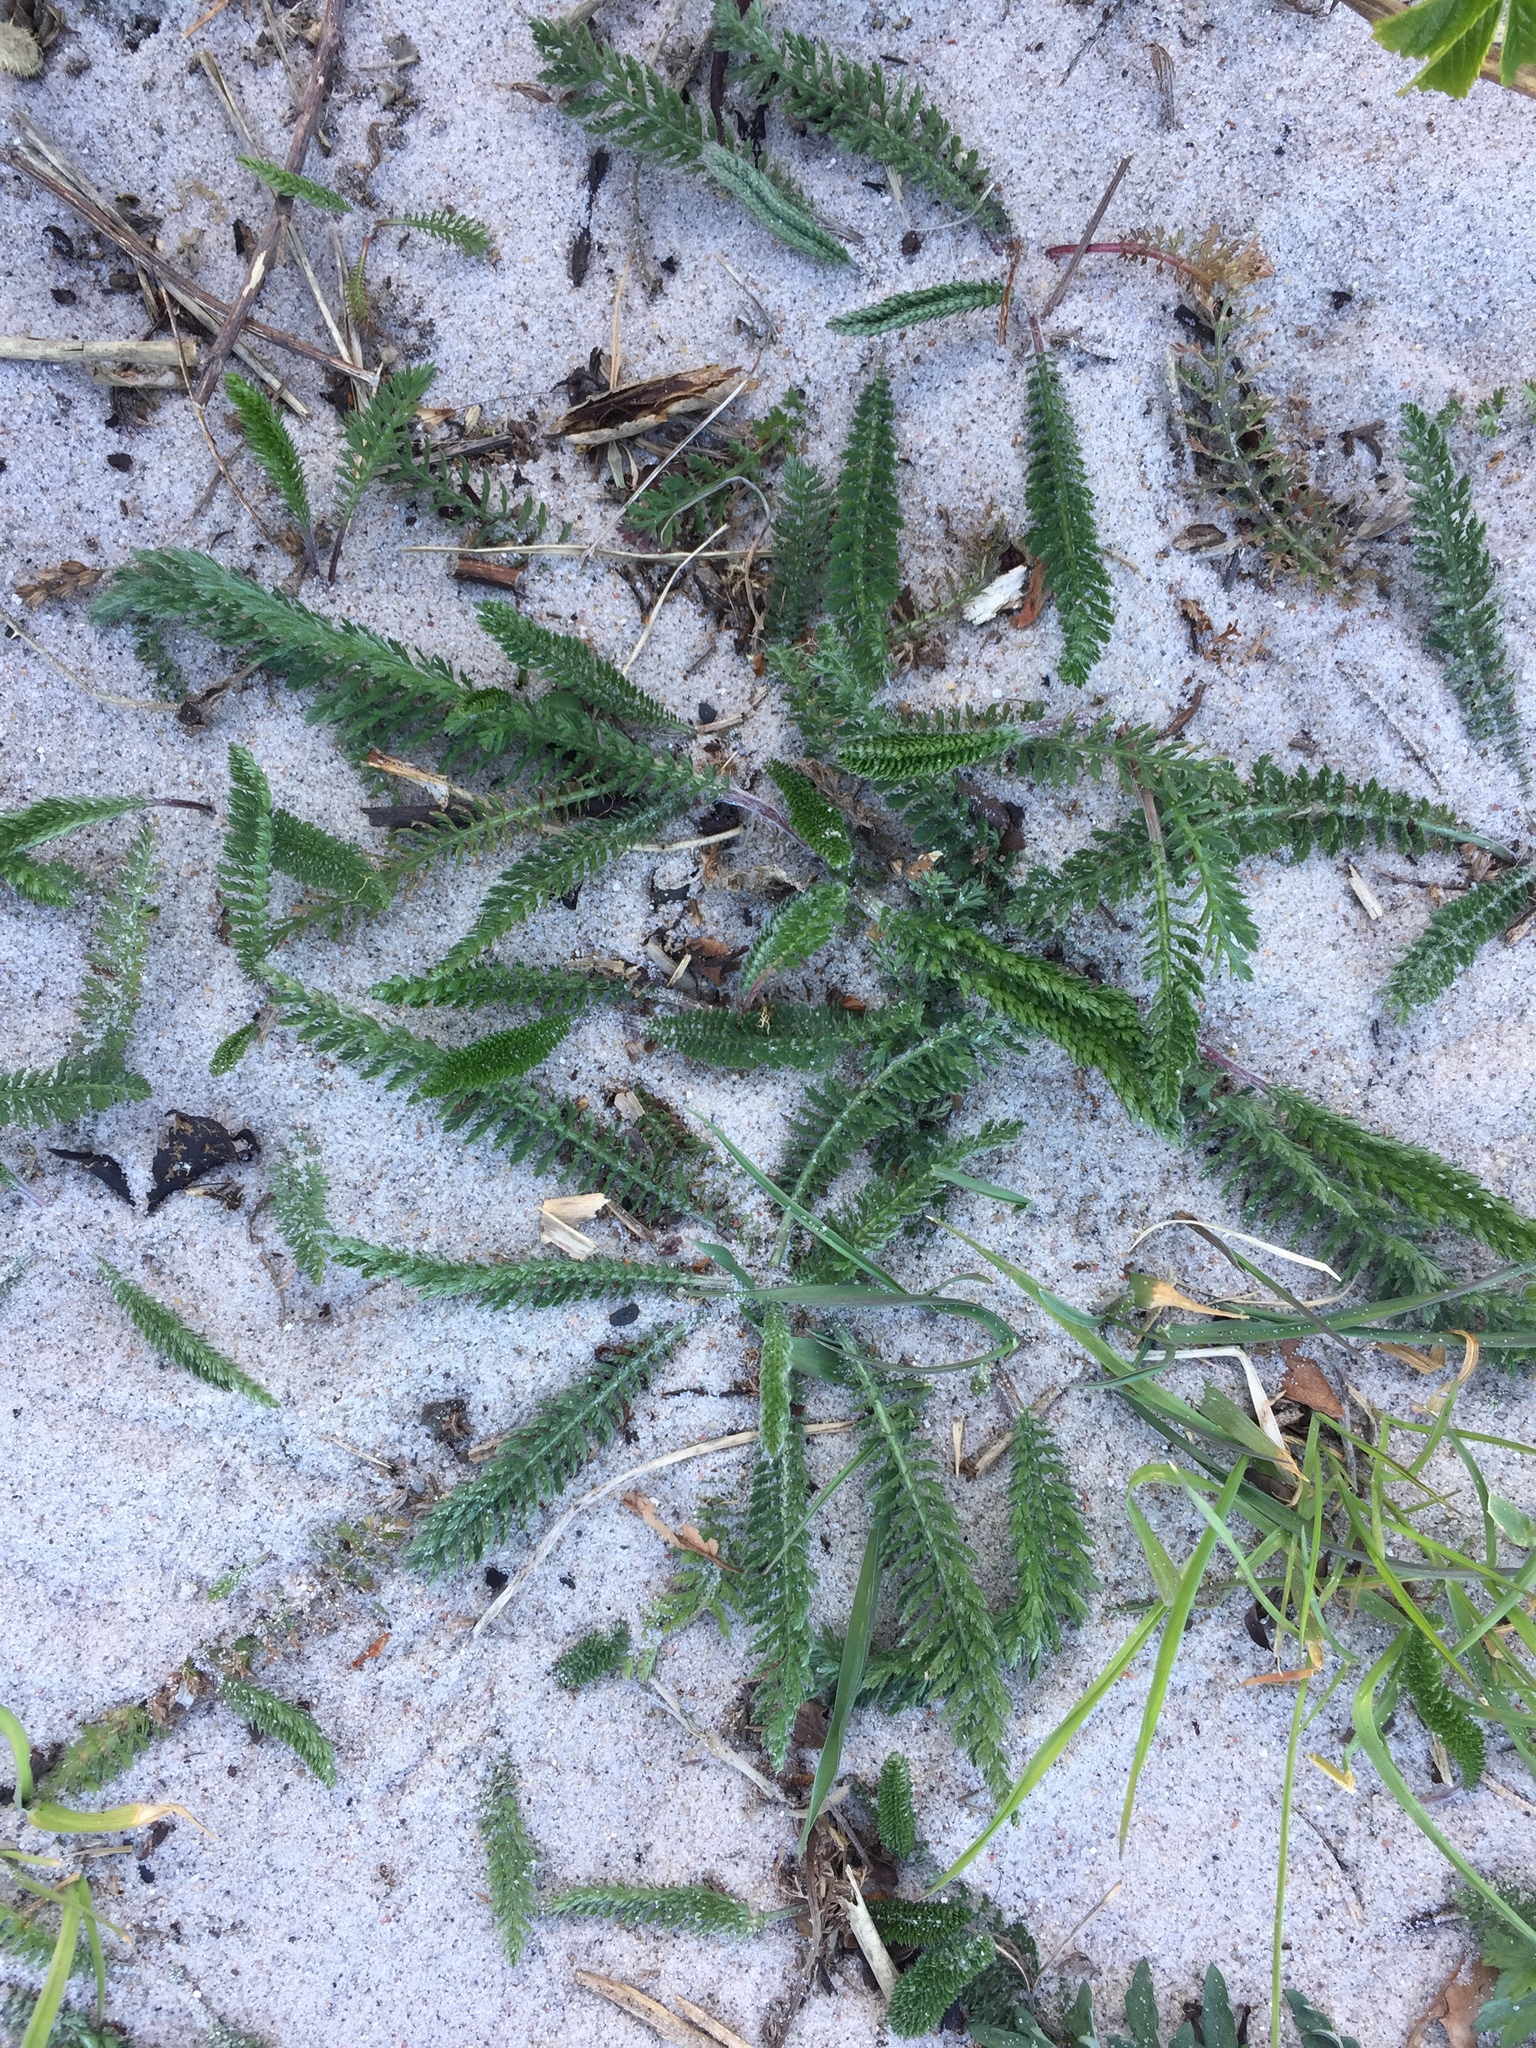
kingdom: Plantae
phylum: Tracheophyta
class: Magnoliopsida
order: Asterales
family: Asteraceae
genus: Achillea
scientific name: Achillea millefolium
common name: Yarrow
